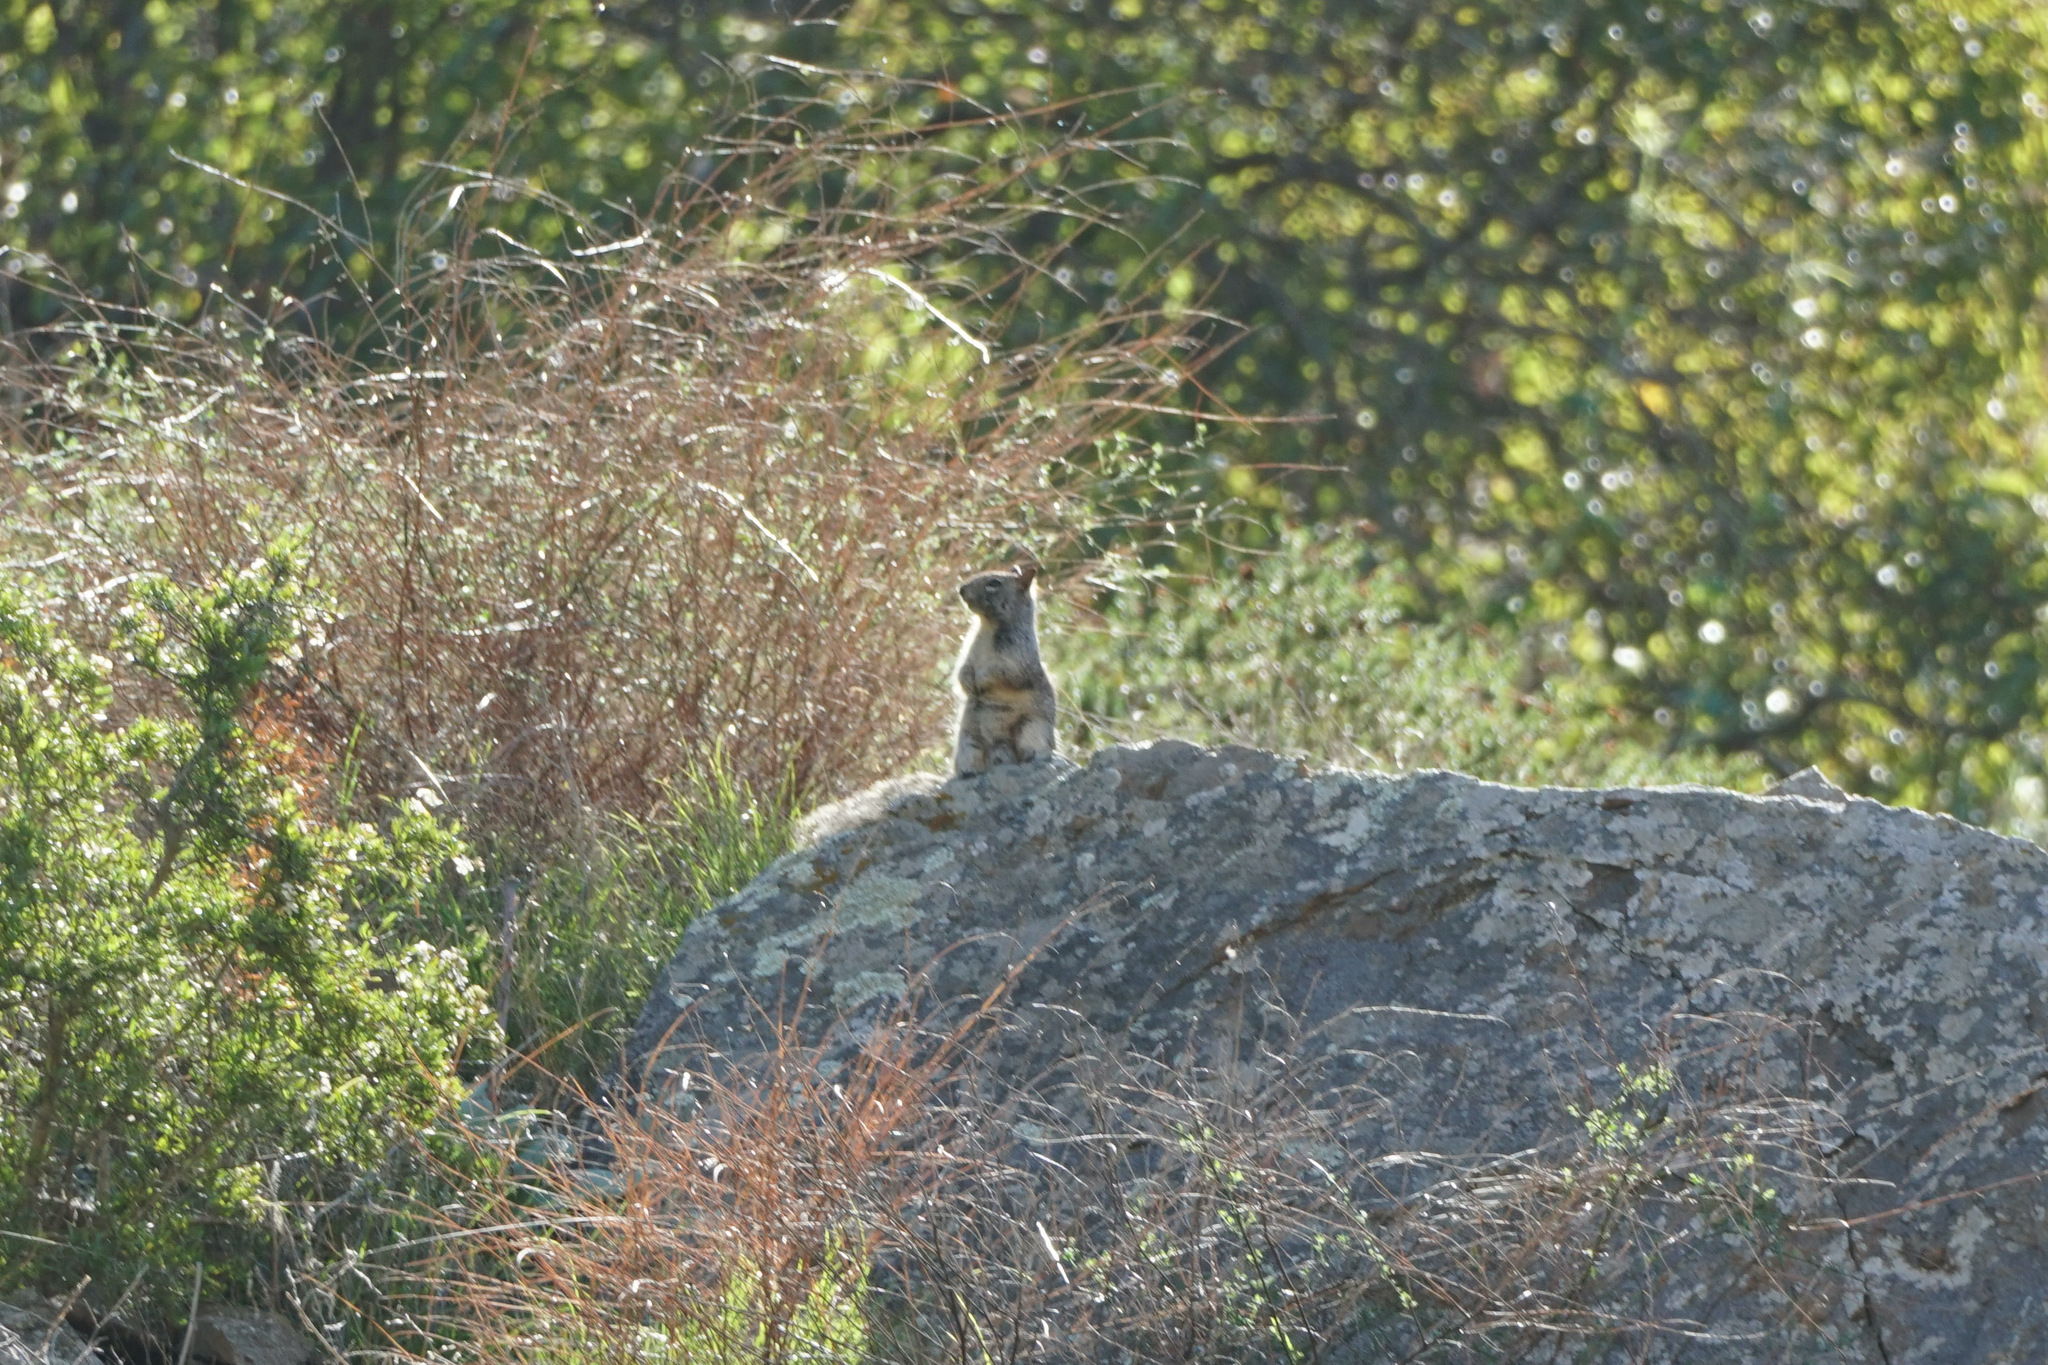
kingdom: Animalia
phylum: Chordata
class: Mammalia
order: Rodentia
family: Sciuridae
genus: Otospermophilus
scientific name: Otospermophilus beecheyi
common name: California ground squirrel
